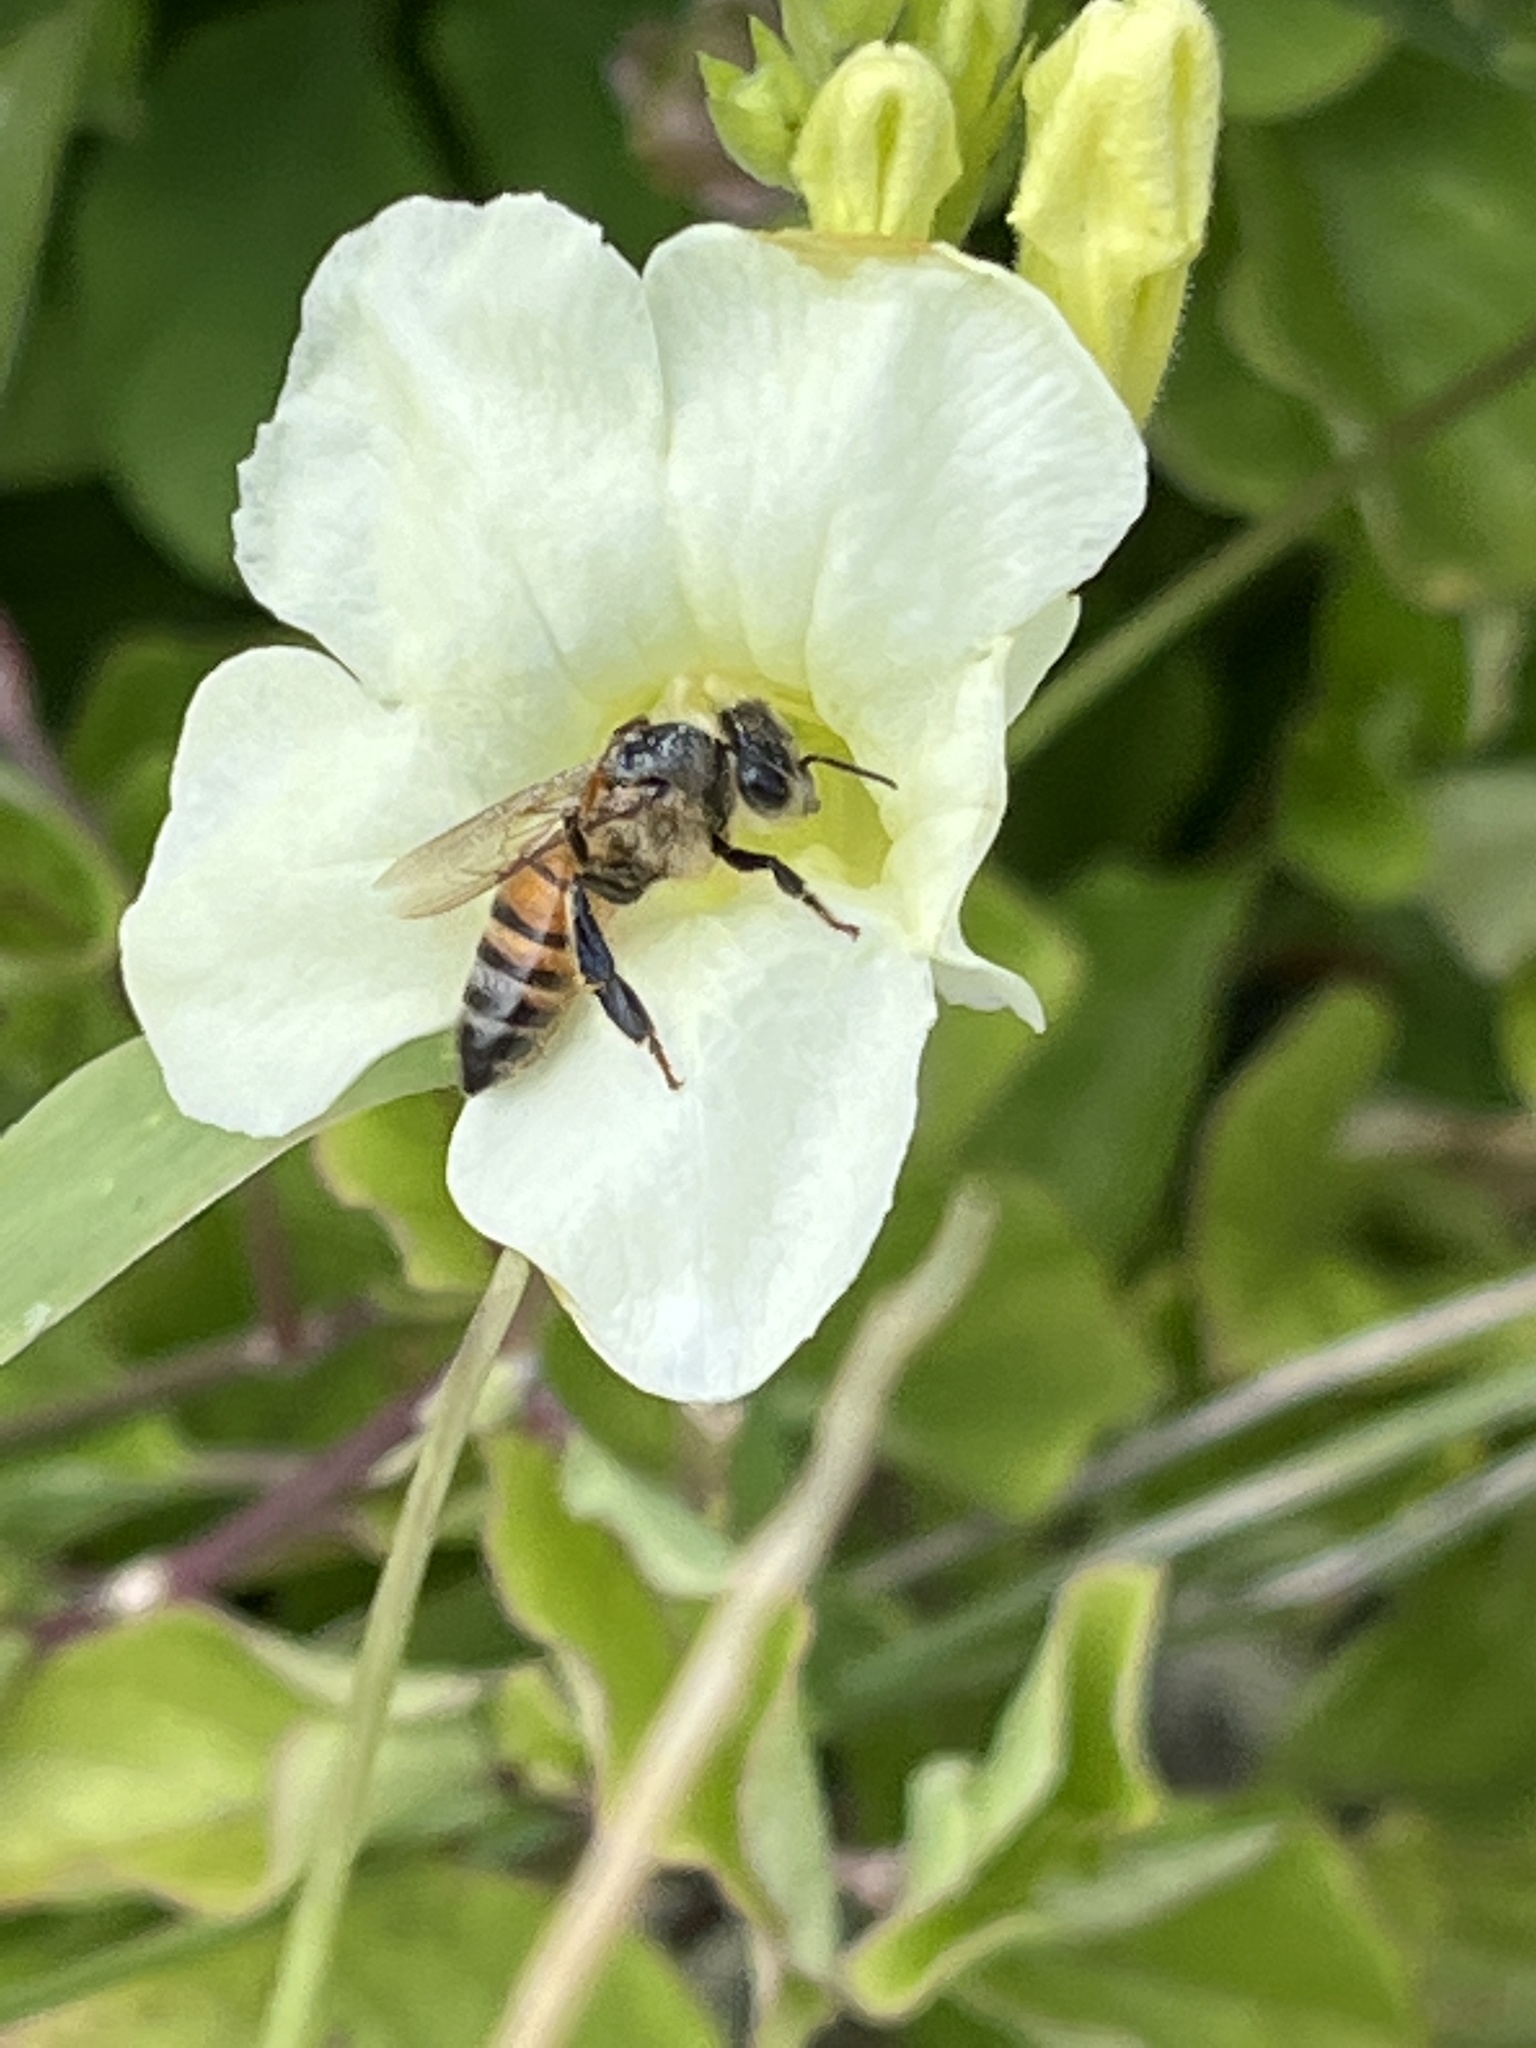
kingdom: Animalia
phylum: Arthropoda
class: Insecta
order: Hymenoptera
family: Apidae
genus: Apis
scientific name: Apis mellifera
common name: Honey bee
